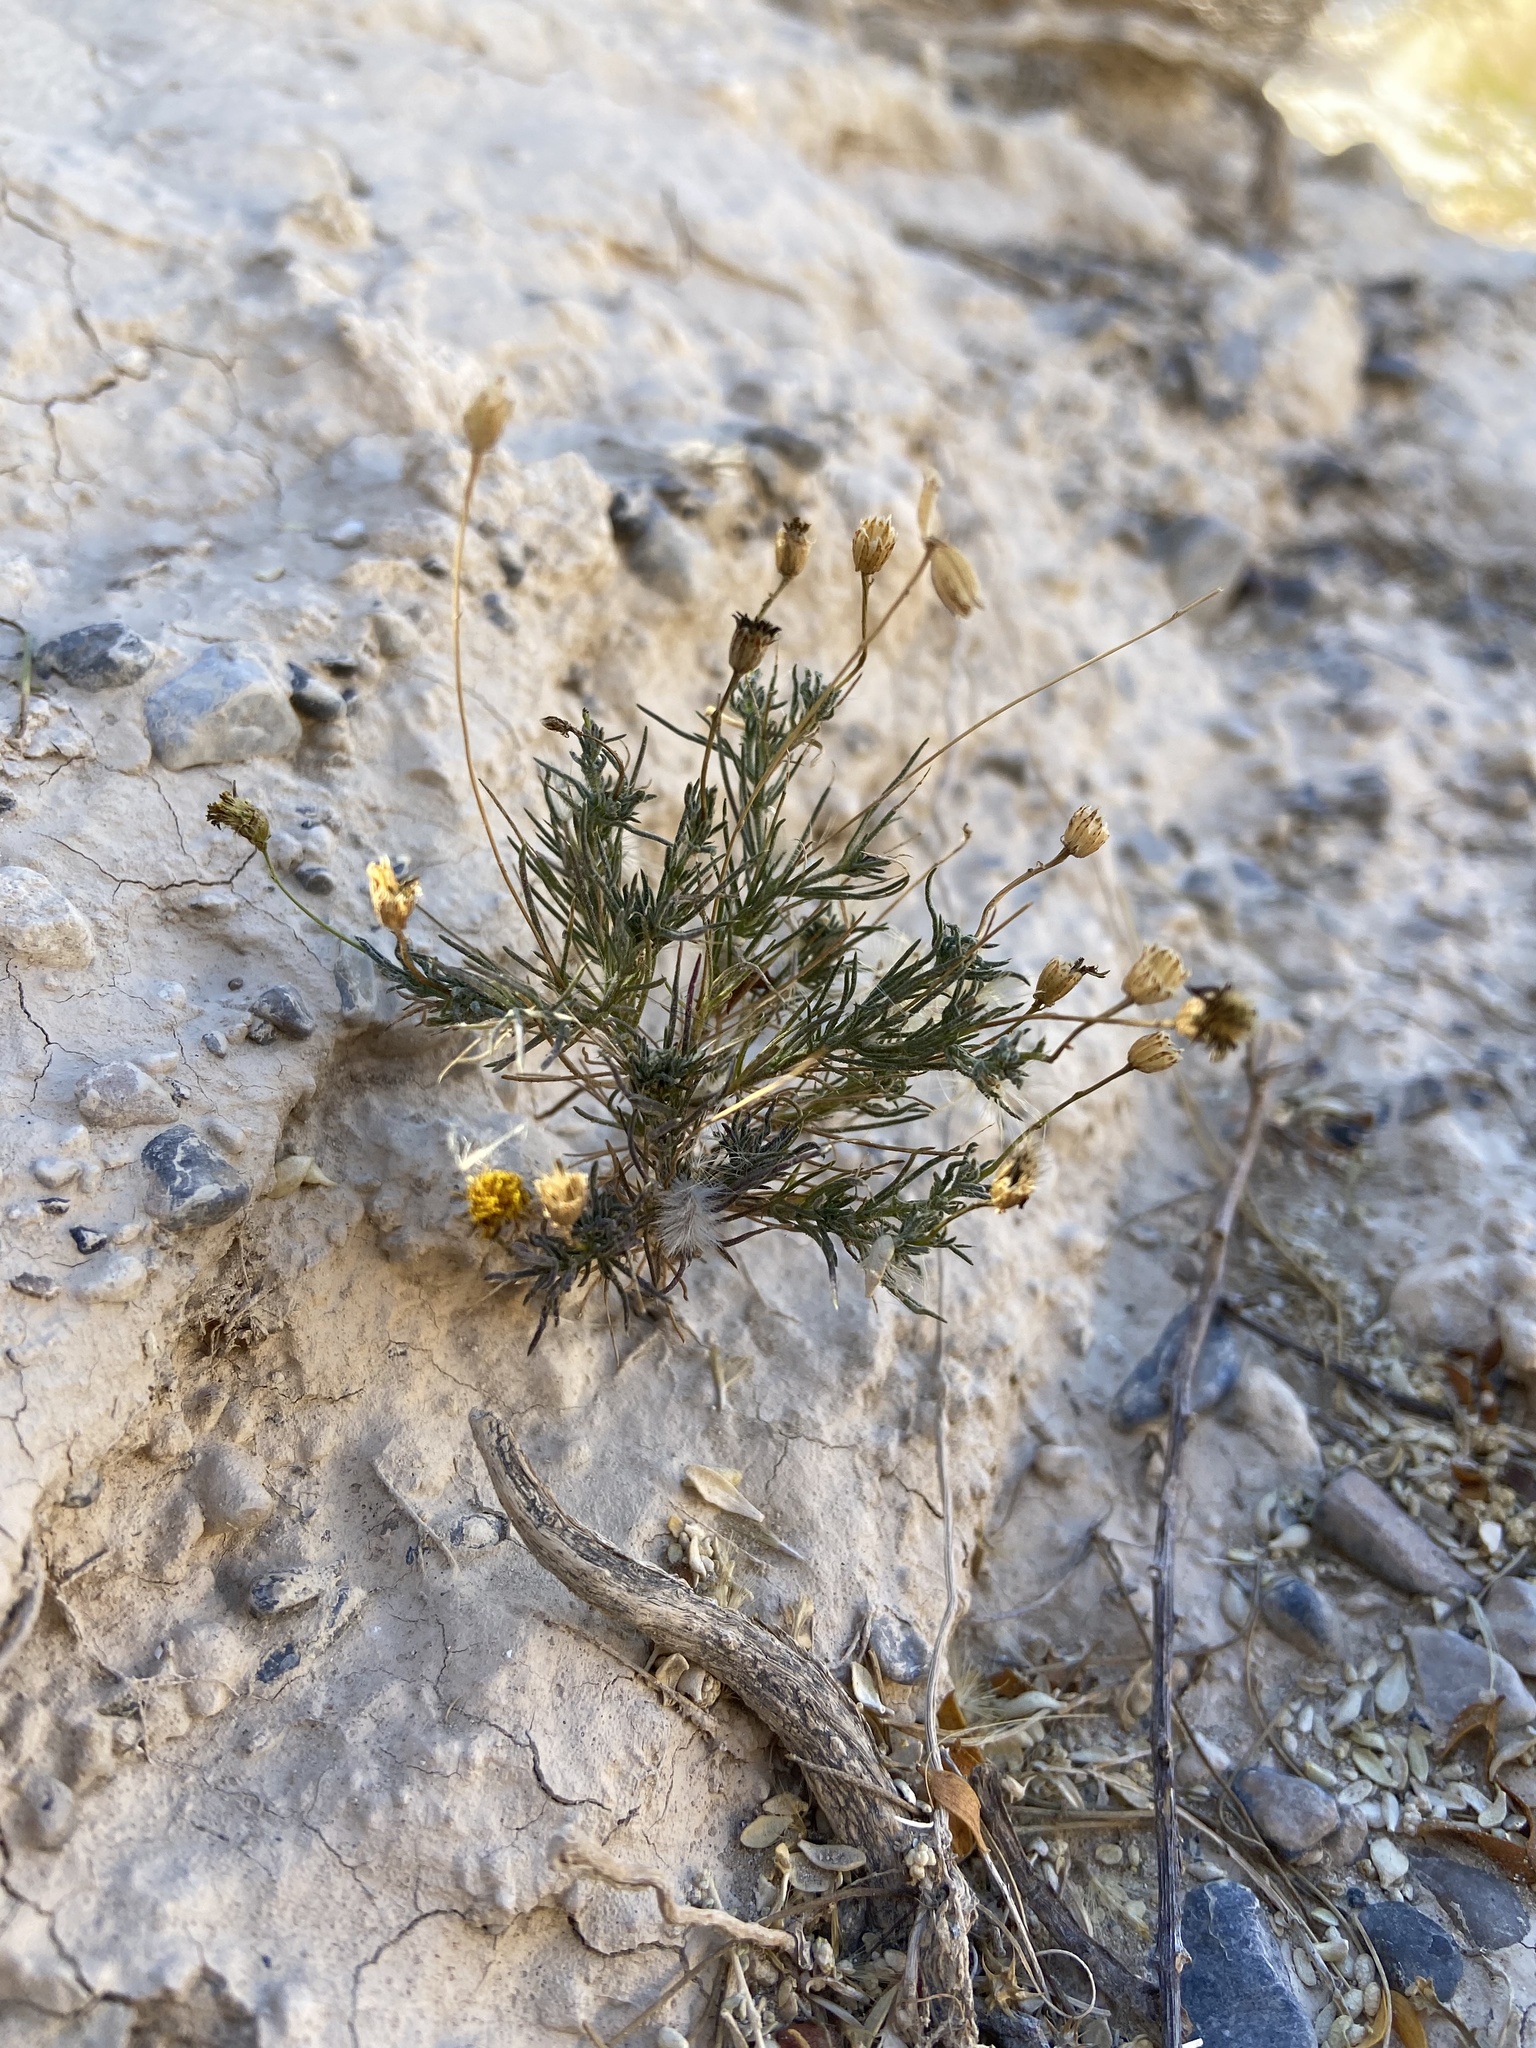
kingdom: Plantae
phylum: Tracheophyta
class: Magnoliopsida
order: Asterales
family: Asteraceae
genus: Thymophylla
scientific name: Thymophylla pentachaeta
